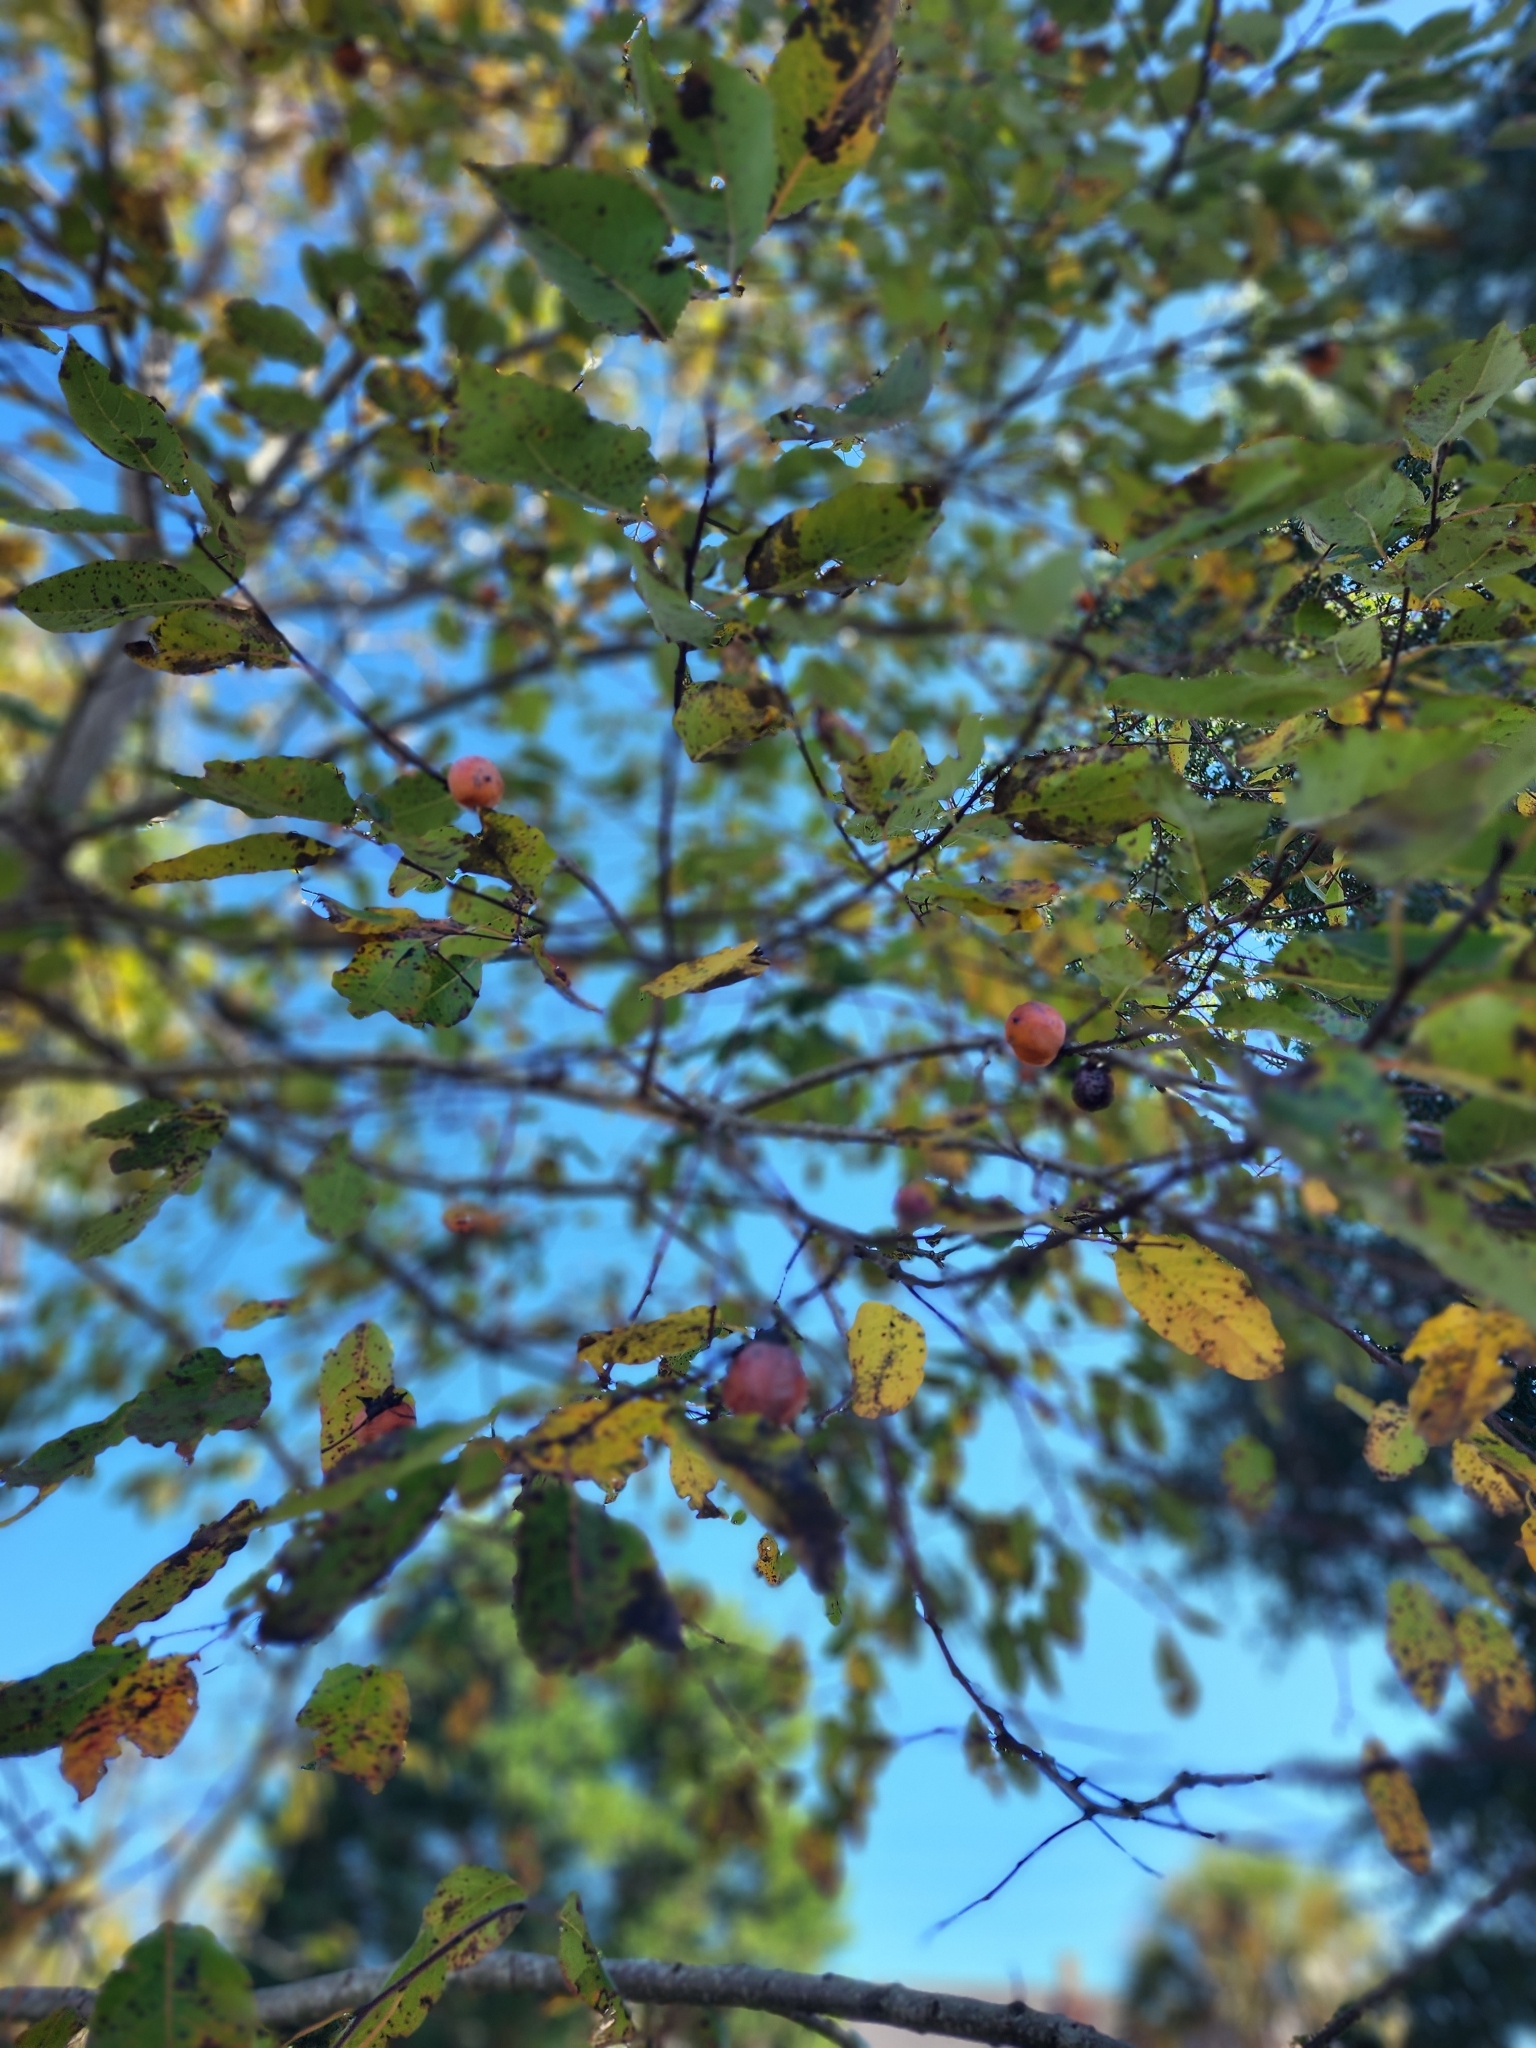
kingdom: Plantae
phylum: Tracheophyta
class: Magnoliopsida
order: Ericales
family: Ebenaceae
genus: Diospyros
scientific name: Diospyros virginiana
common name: Persimmon
